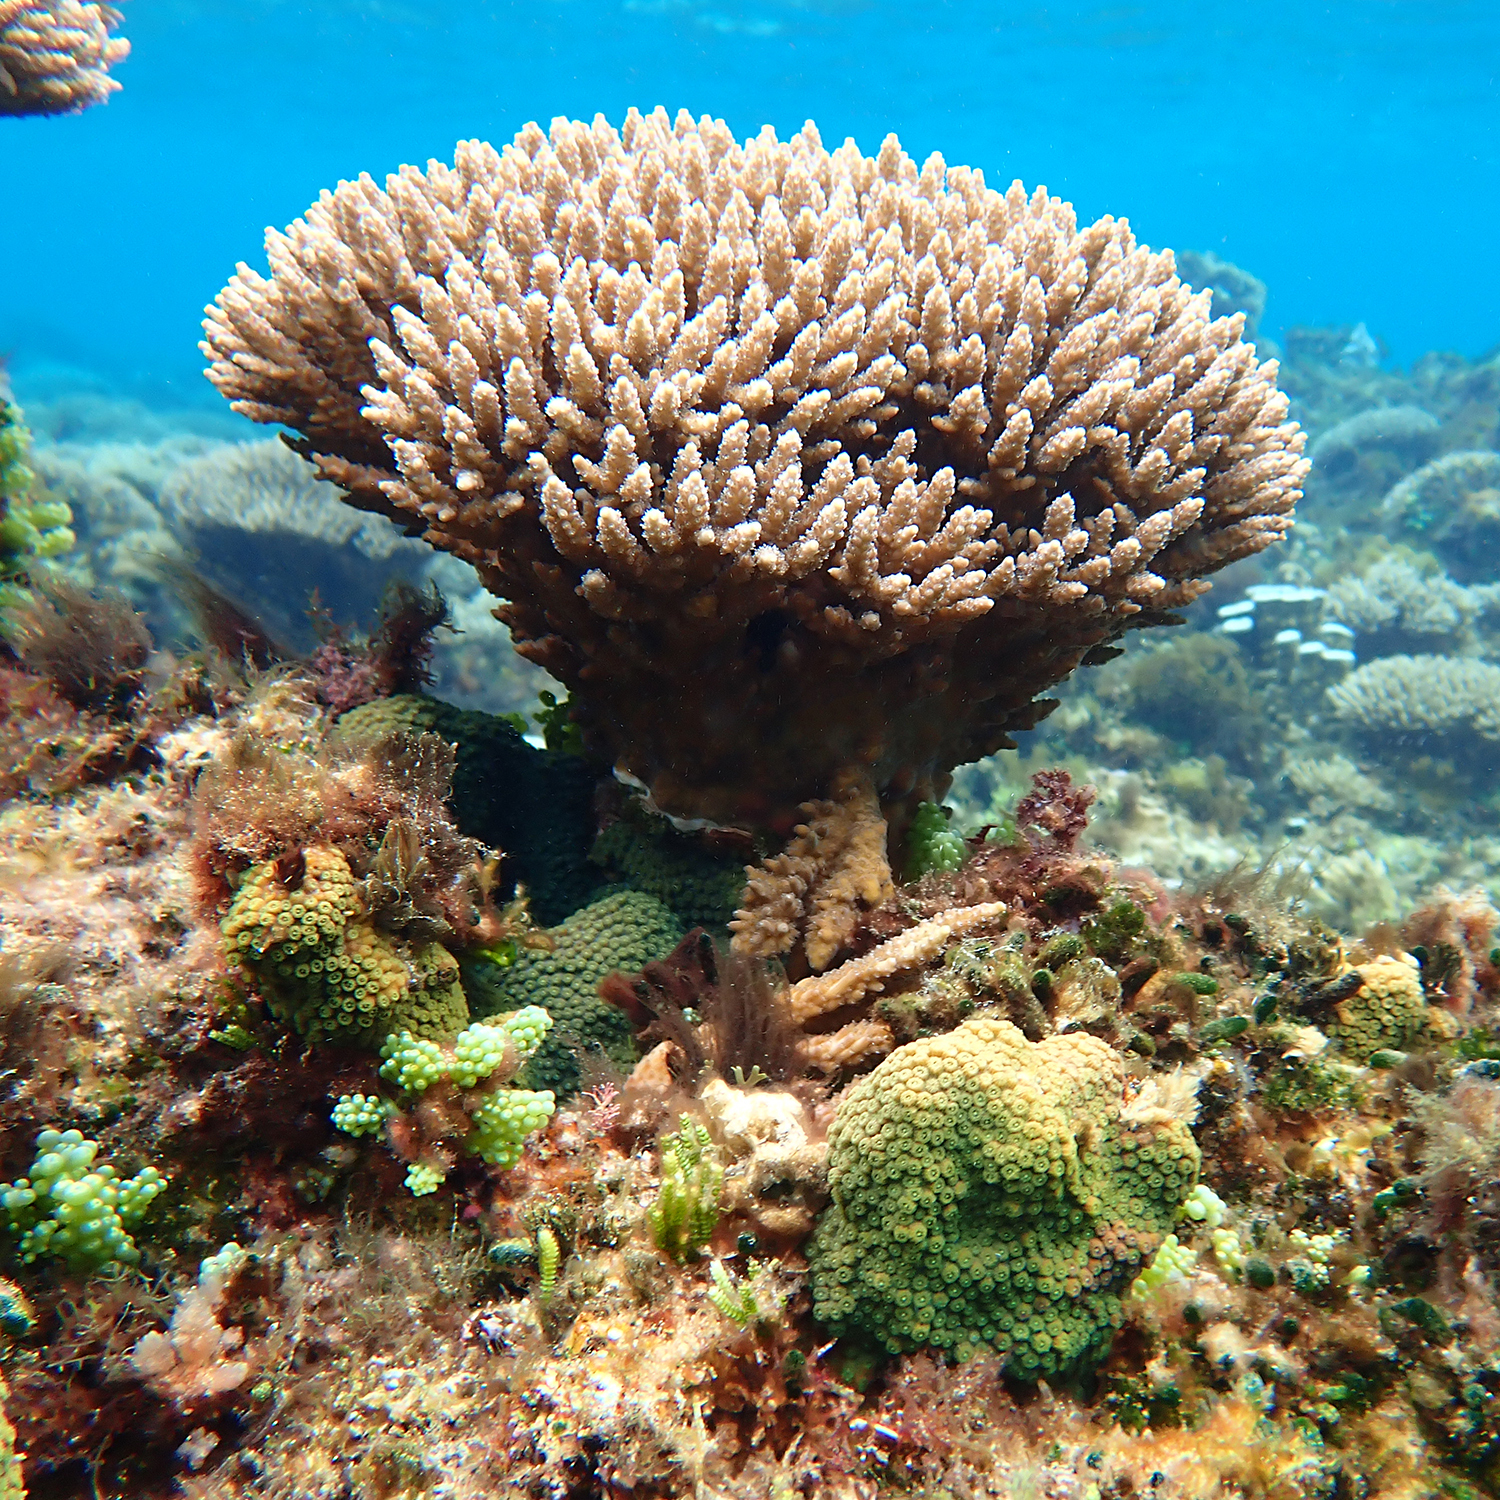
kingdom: Animalia
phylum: Cnidaria
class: Anthozoa
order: Scleractinia
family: Acroporidae
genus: Acropora
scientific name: Acropora solitaryensis
